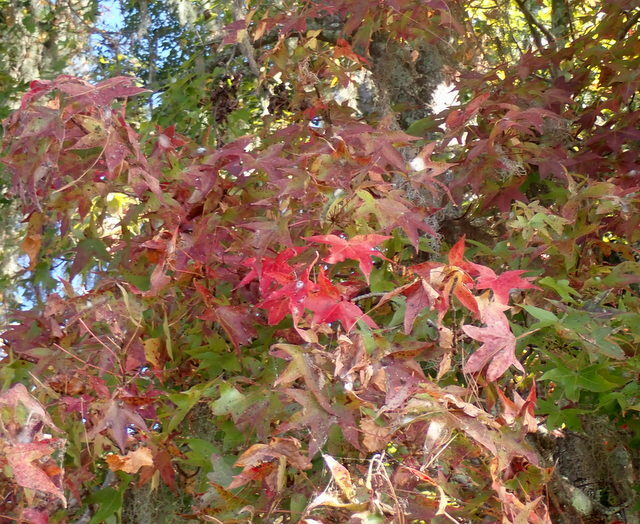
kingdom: Plantae
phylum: Tracheophyta
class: Magnoliopsida
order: Saxifragales
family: Altingiaceae
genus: Liquidambar
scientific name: Liquidambar styraciflua
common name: Sweet gum
